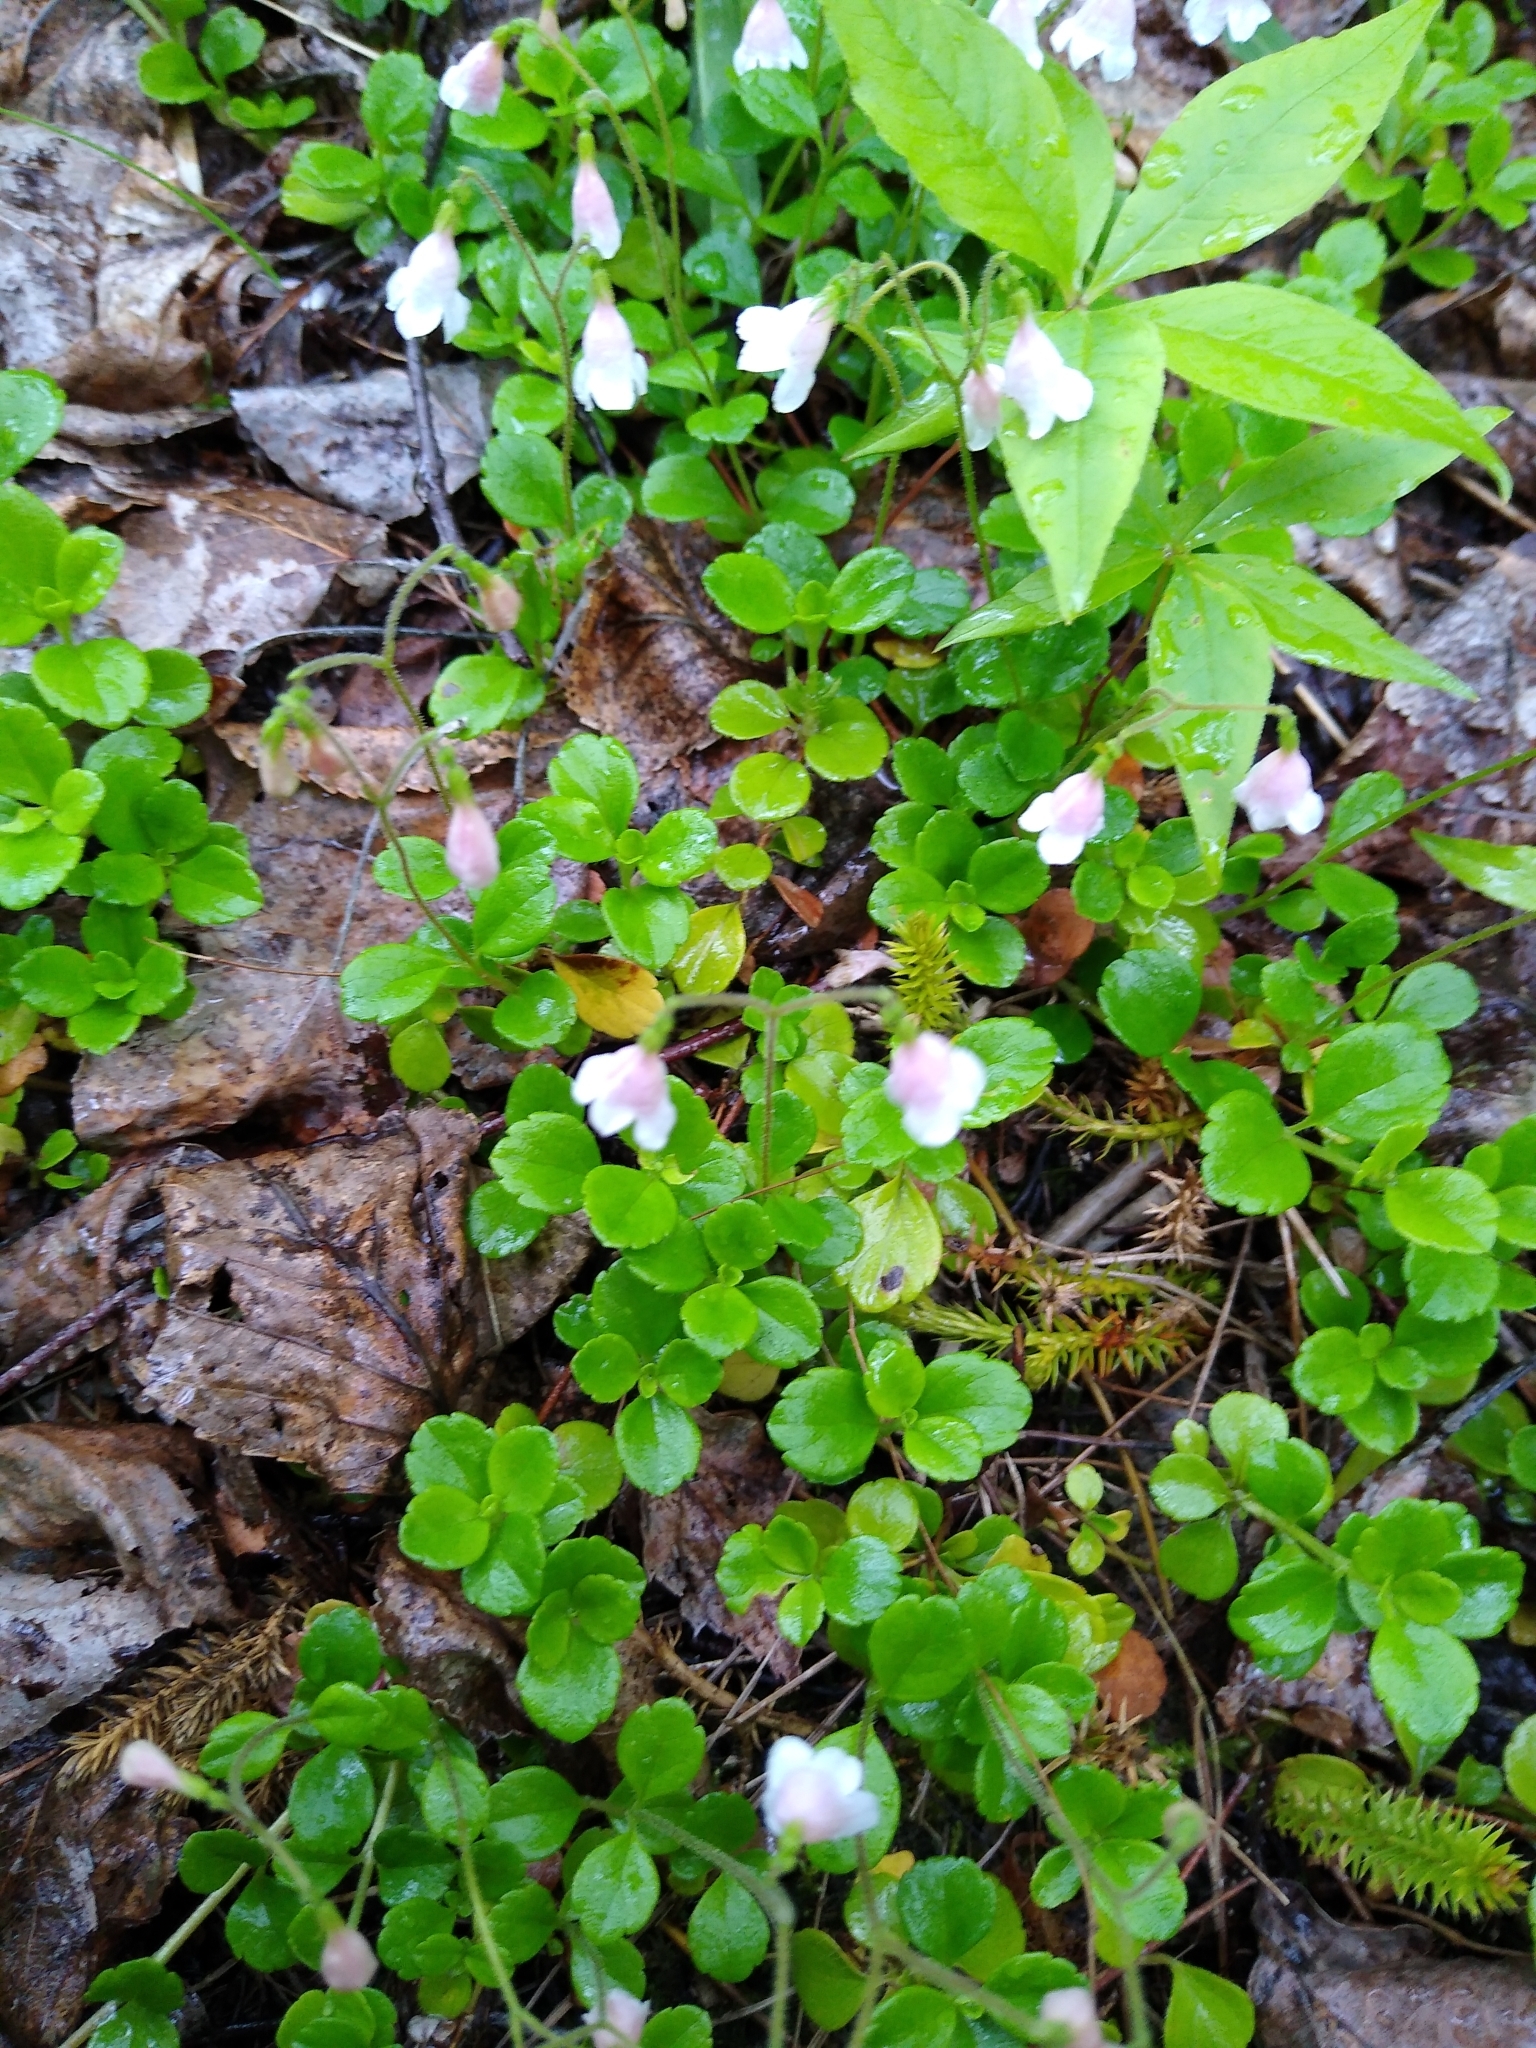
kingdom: Plantae
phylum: Tracheophyta
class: Magnoliopsida
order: Dipsacales
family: Caprifoliaceae
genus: Linnaea
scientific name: Linnaea borealis
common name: Twinflower
